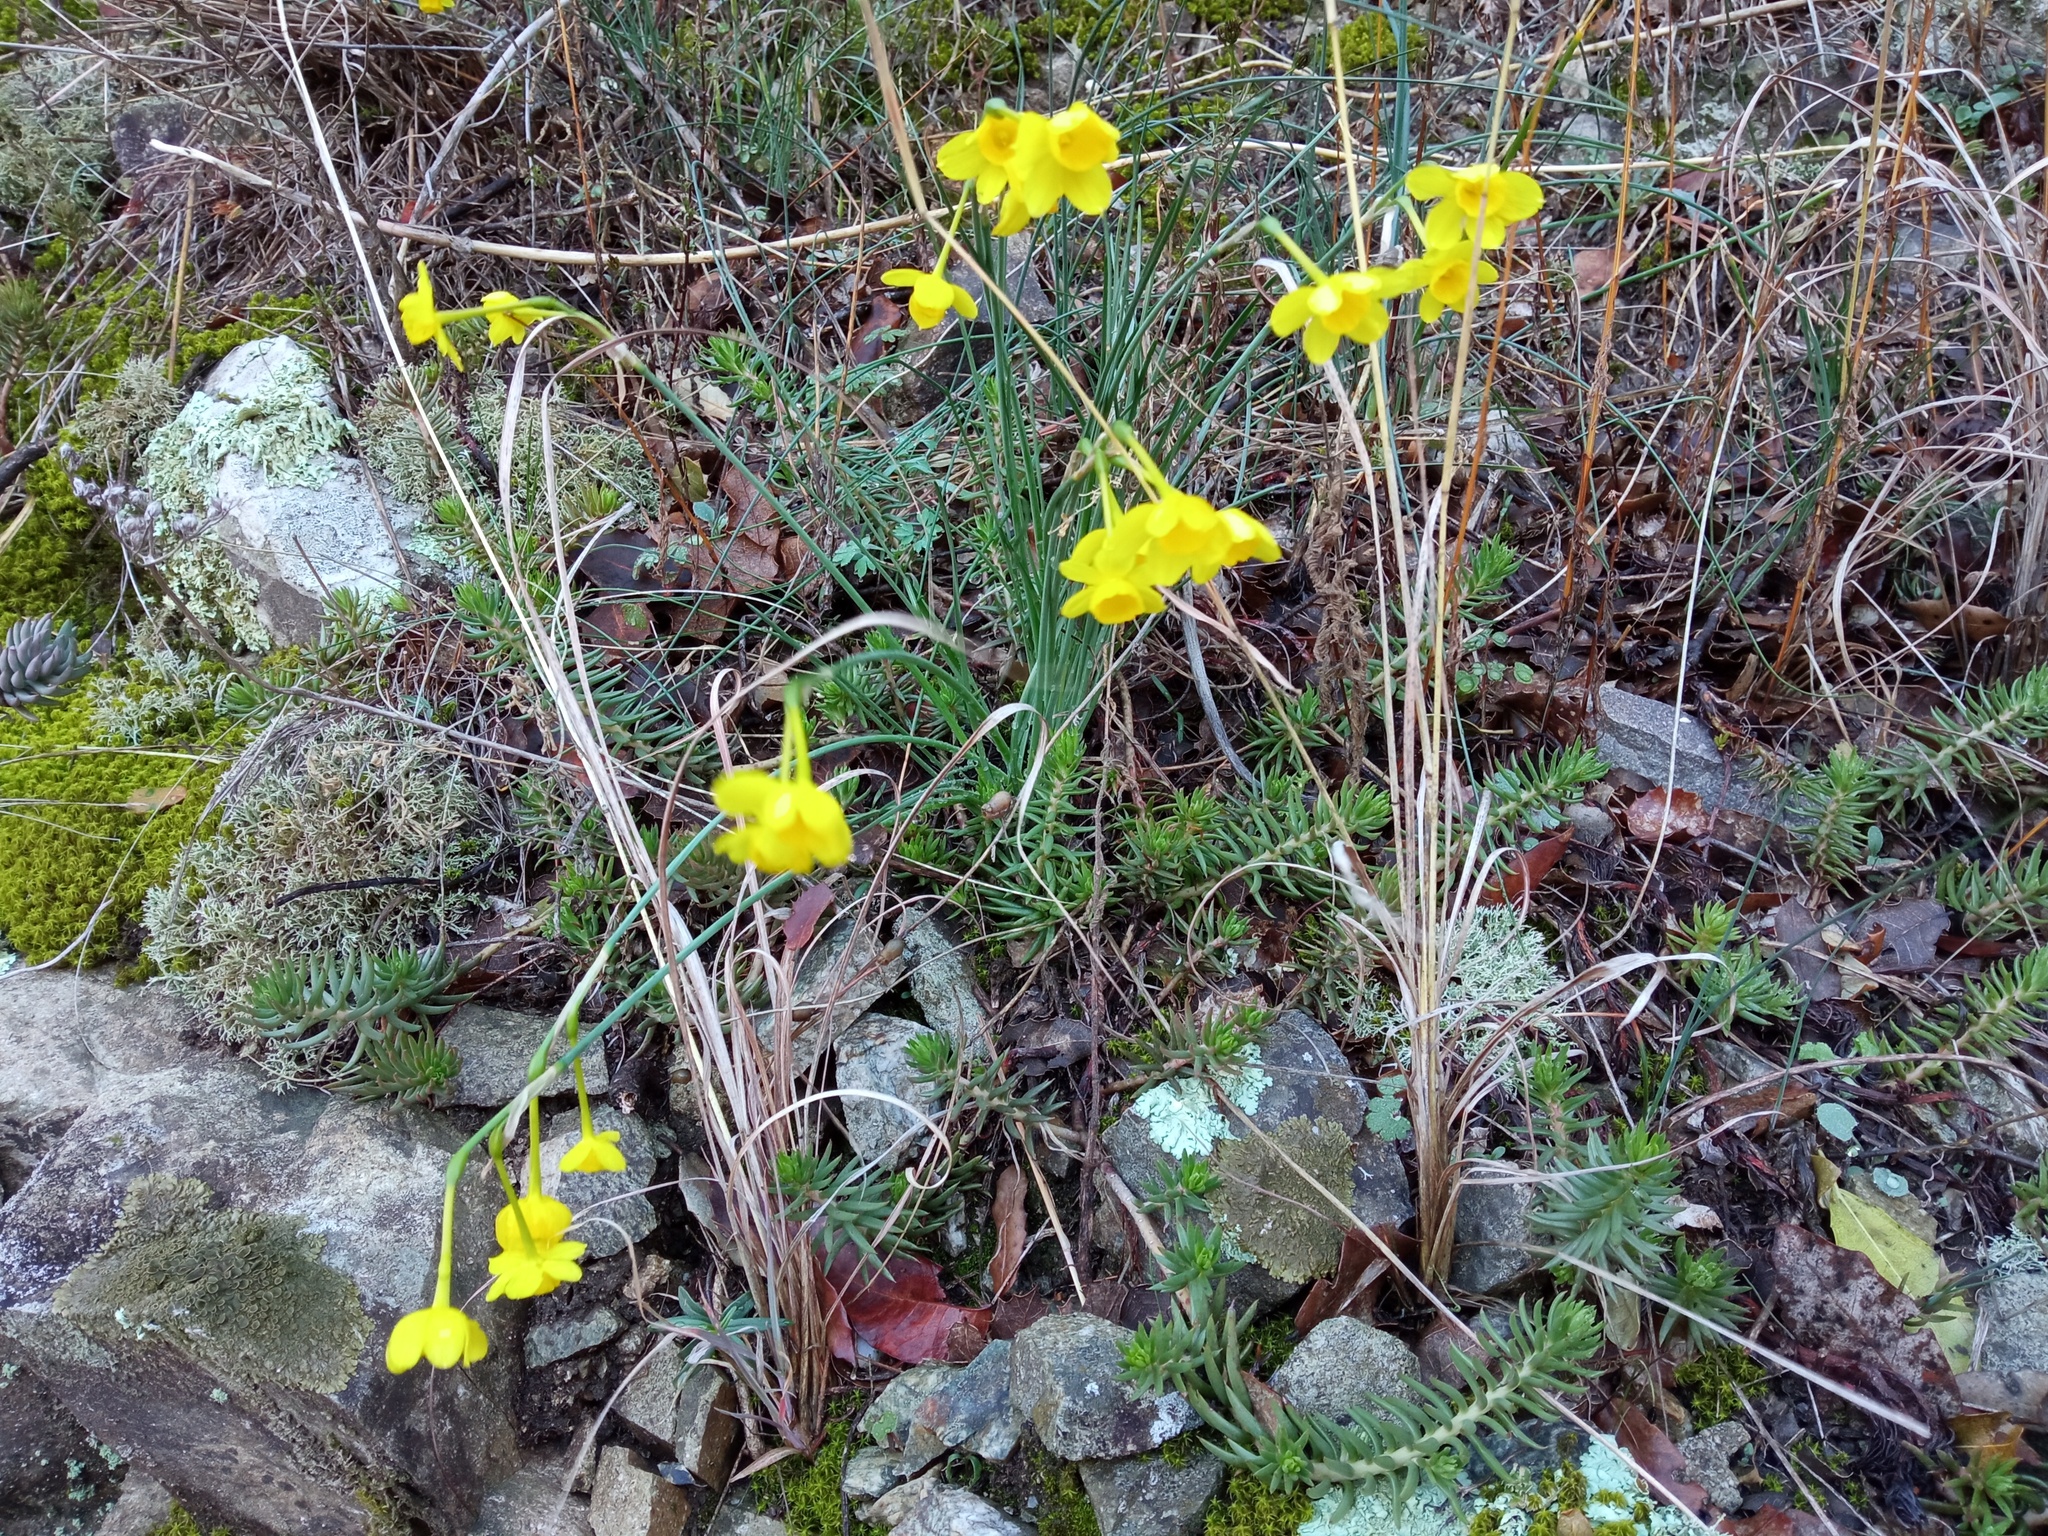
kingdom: Plantae
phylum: Tracheophyta
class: Liliopsida
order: Asparagales
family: Amaryllidaceae
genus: Narcissus
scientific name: Narcissus assoanus
